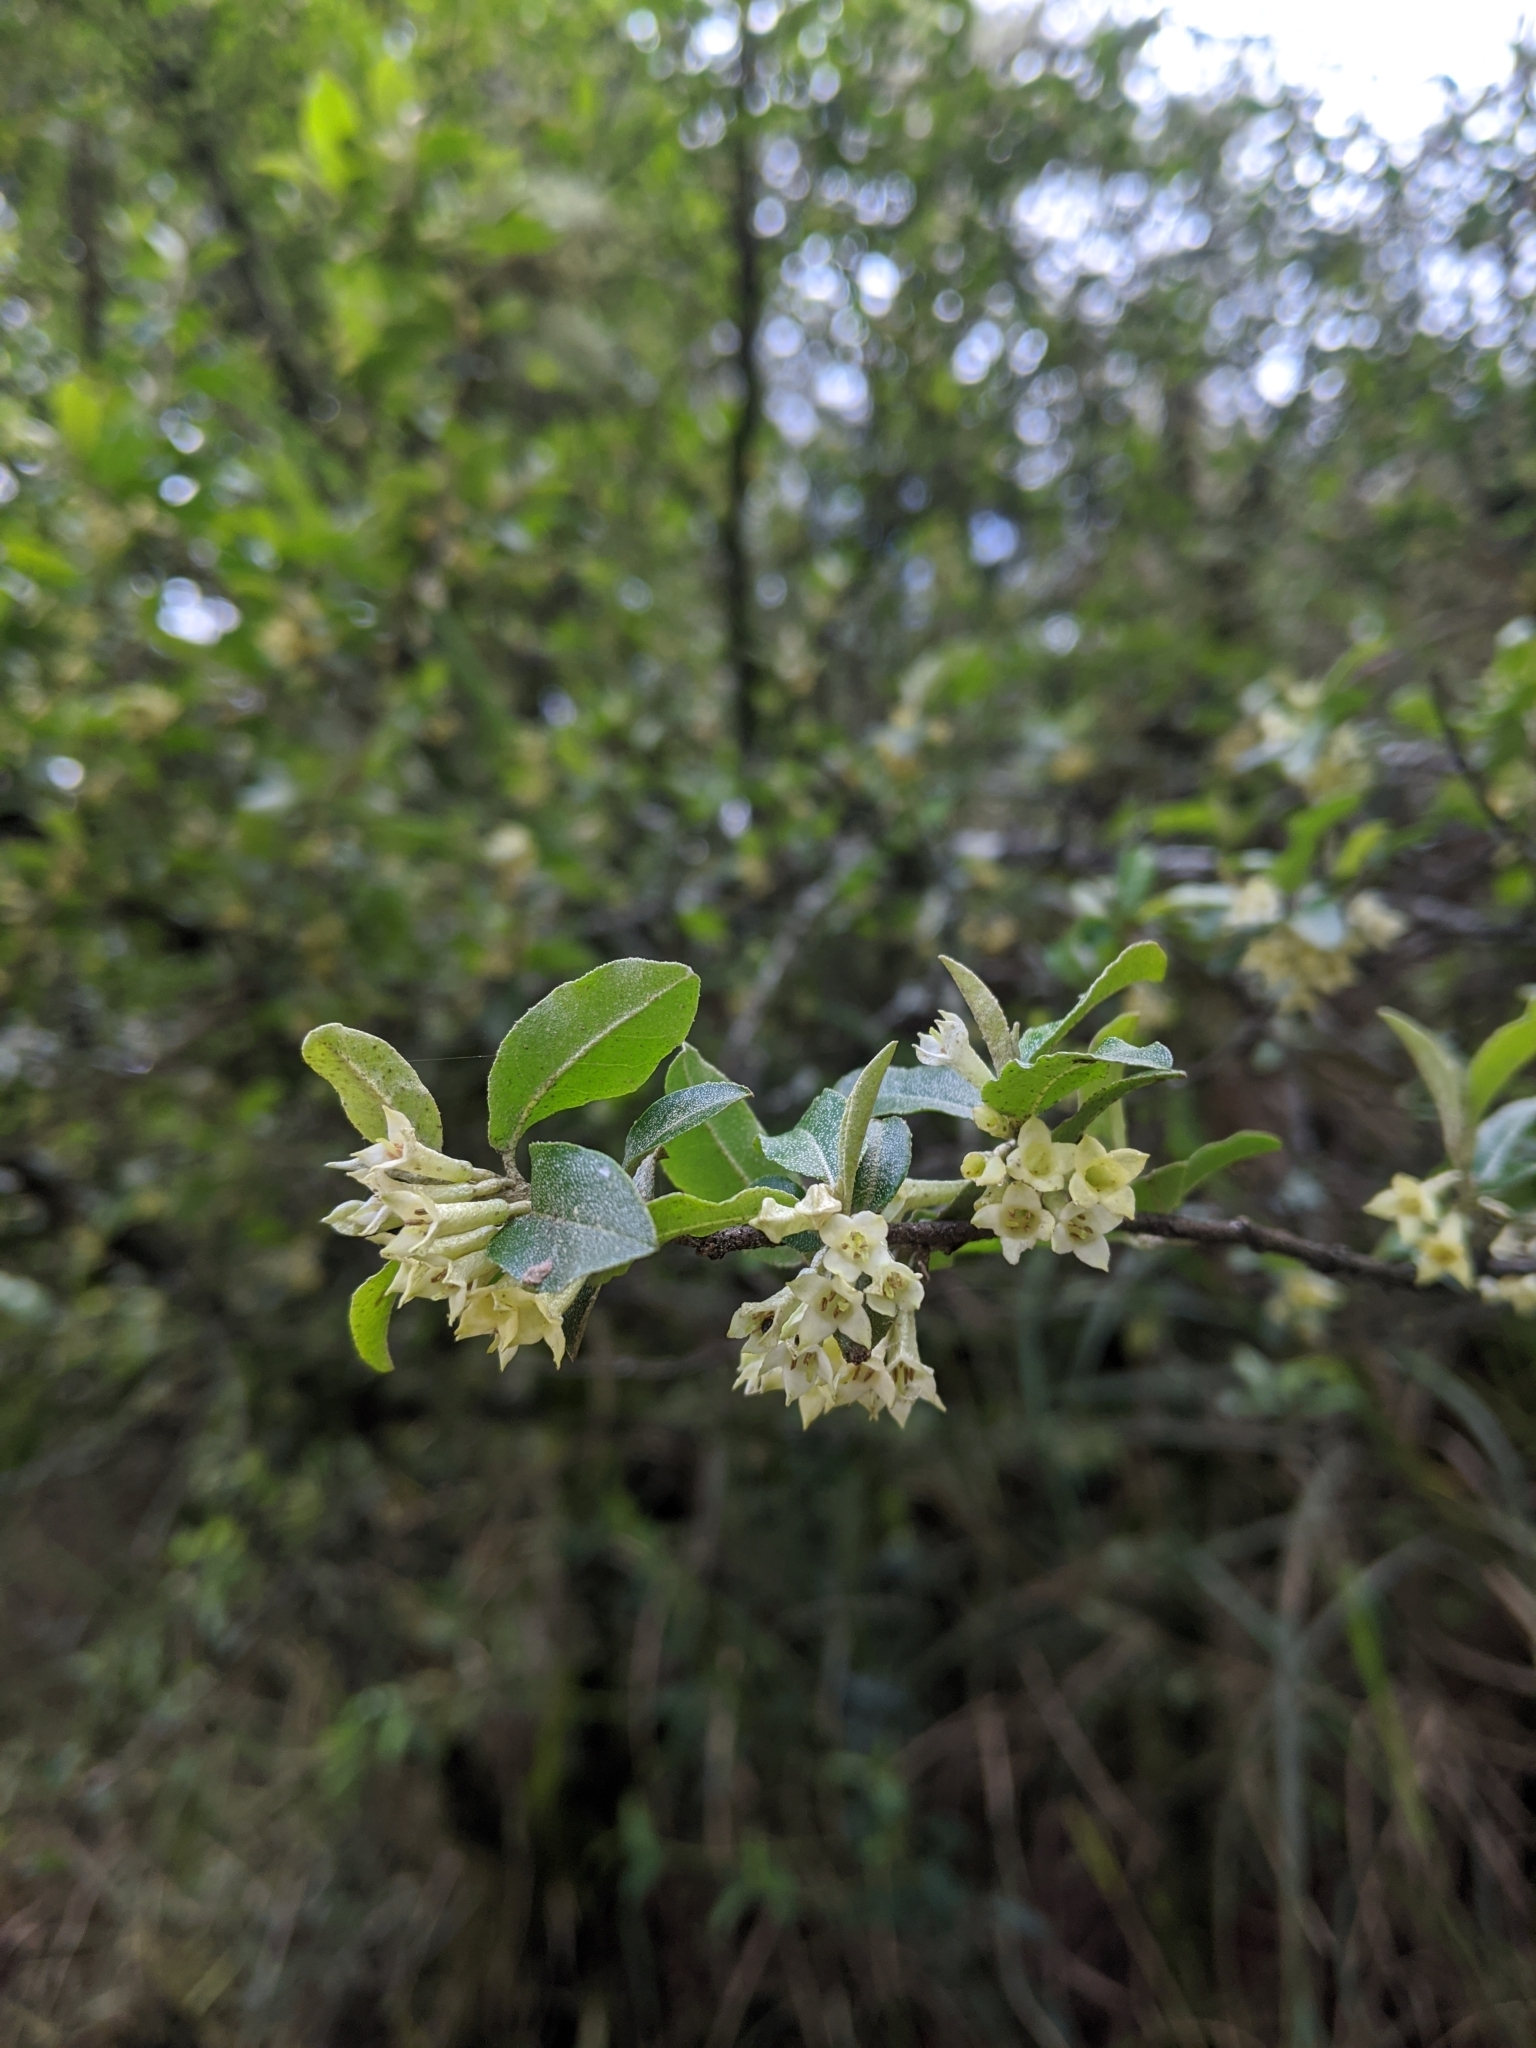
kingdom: Plantae
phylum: Tracheophyta
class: Magnoliopsida
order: Rosales
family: Elaeagnaceae
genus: Elaeagnus
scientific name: Elaeagnus umbellata
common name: Autumn olive
